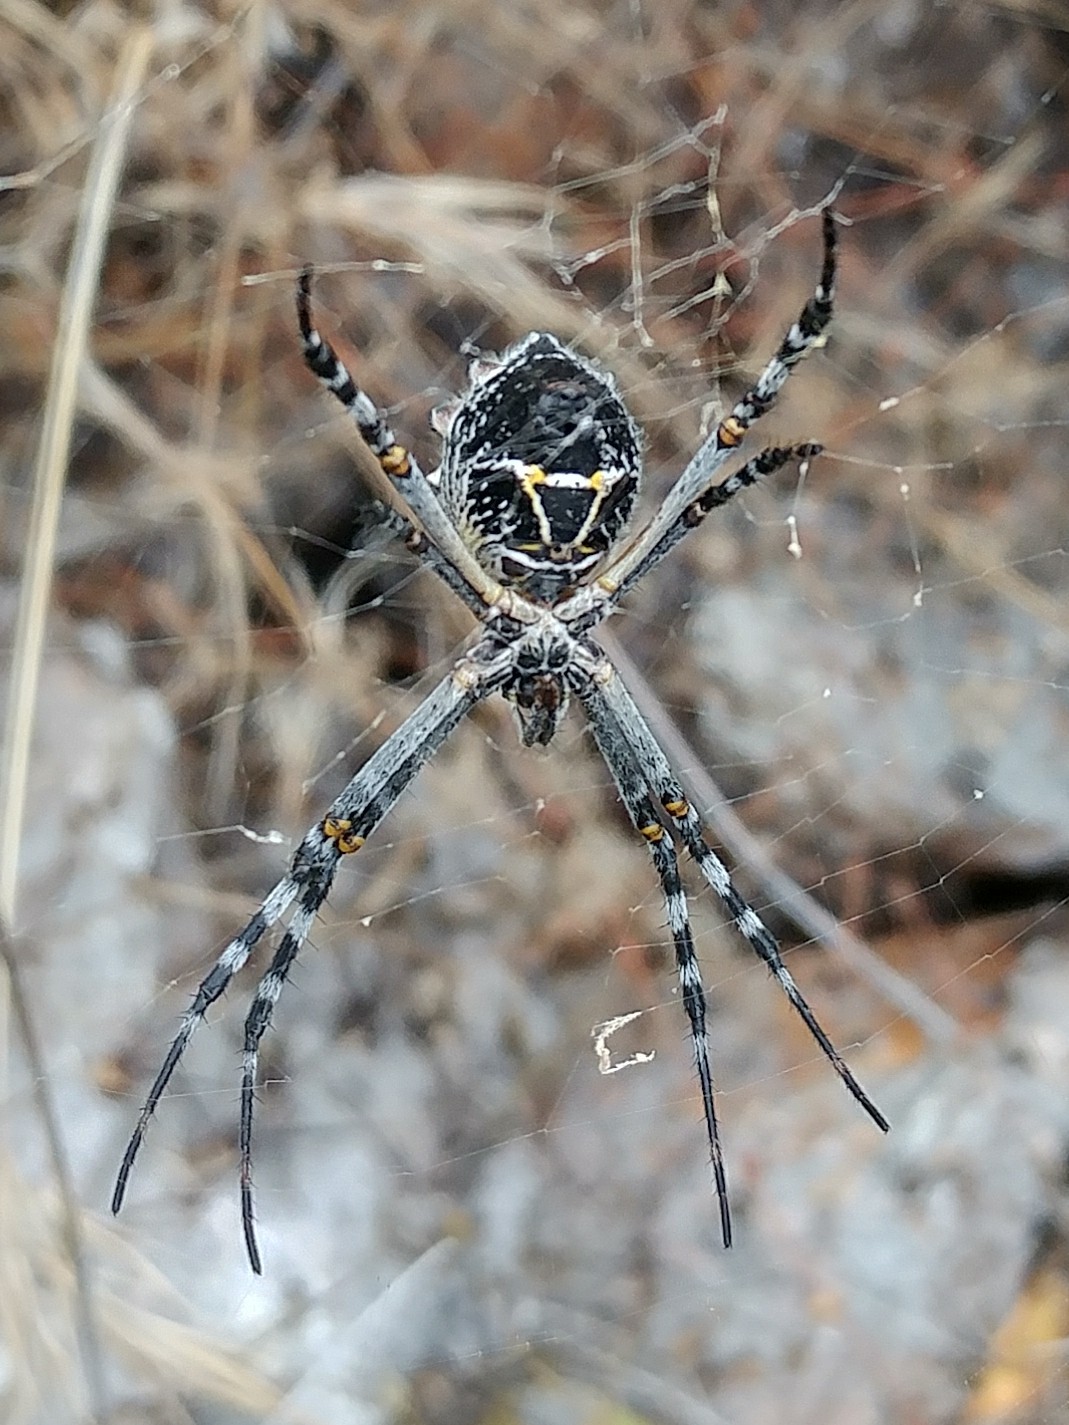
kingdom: Animalia
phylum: Arthropoda
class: Arachnida
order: Araneae
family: Araneidae
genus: Argiope
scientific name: Argiope argentata
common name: Orb weavers
